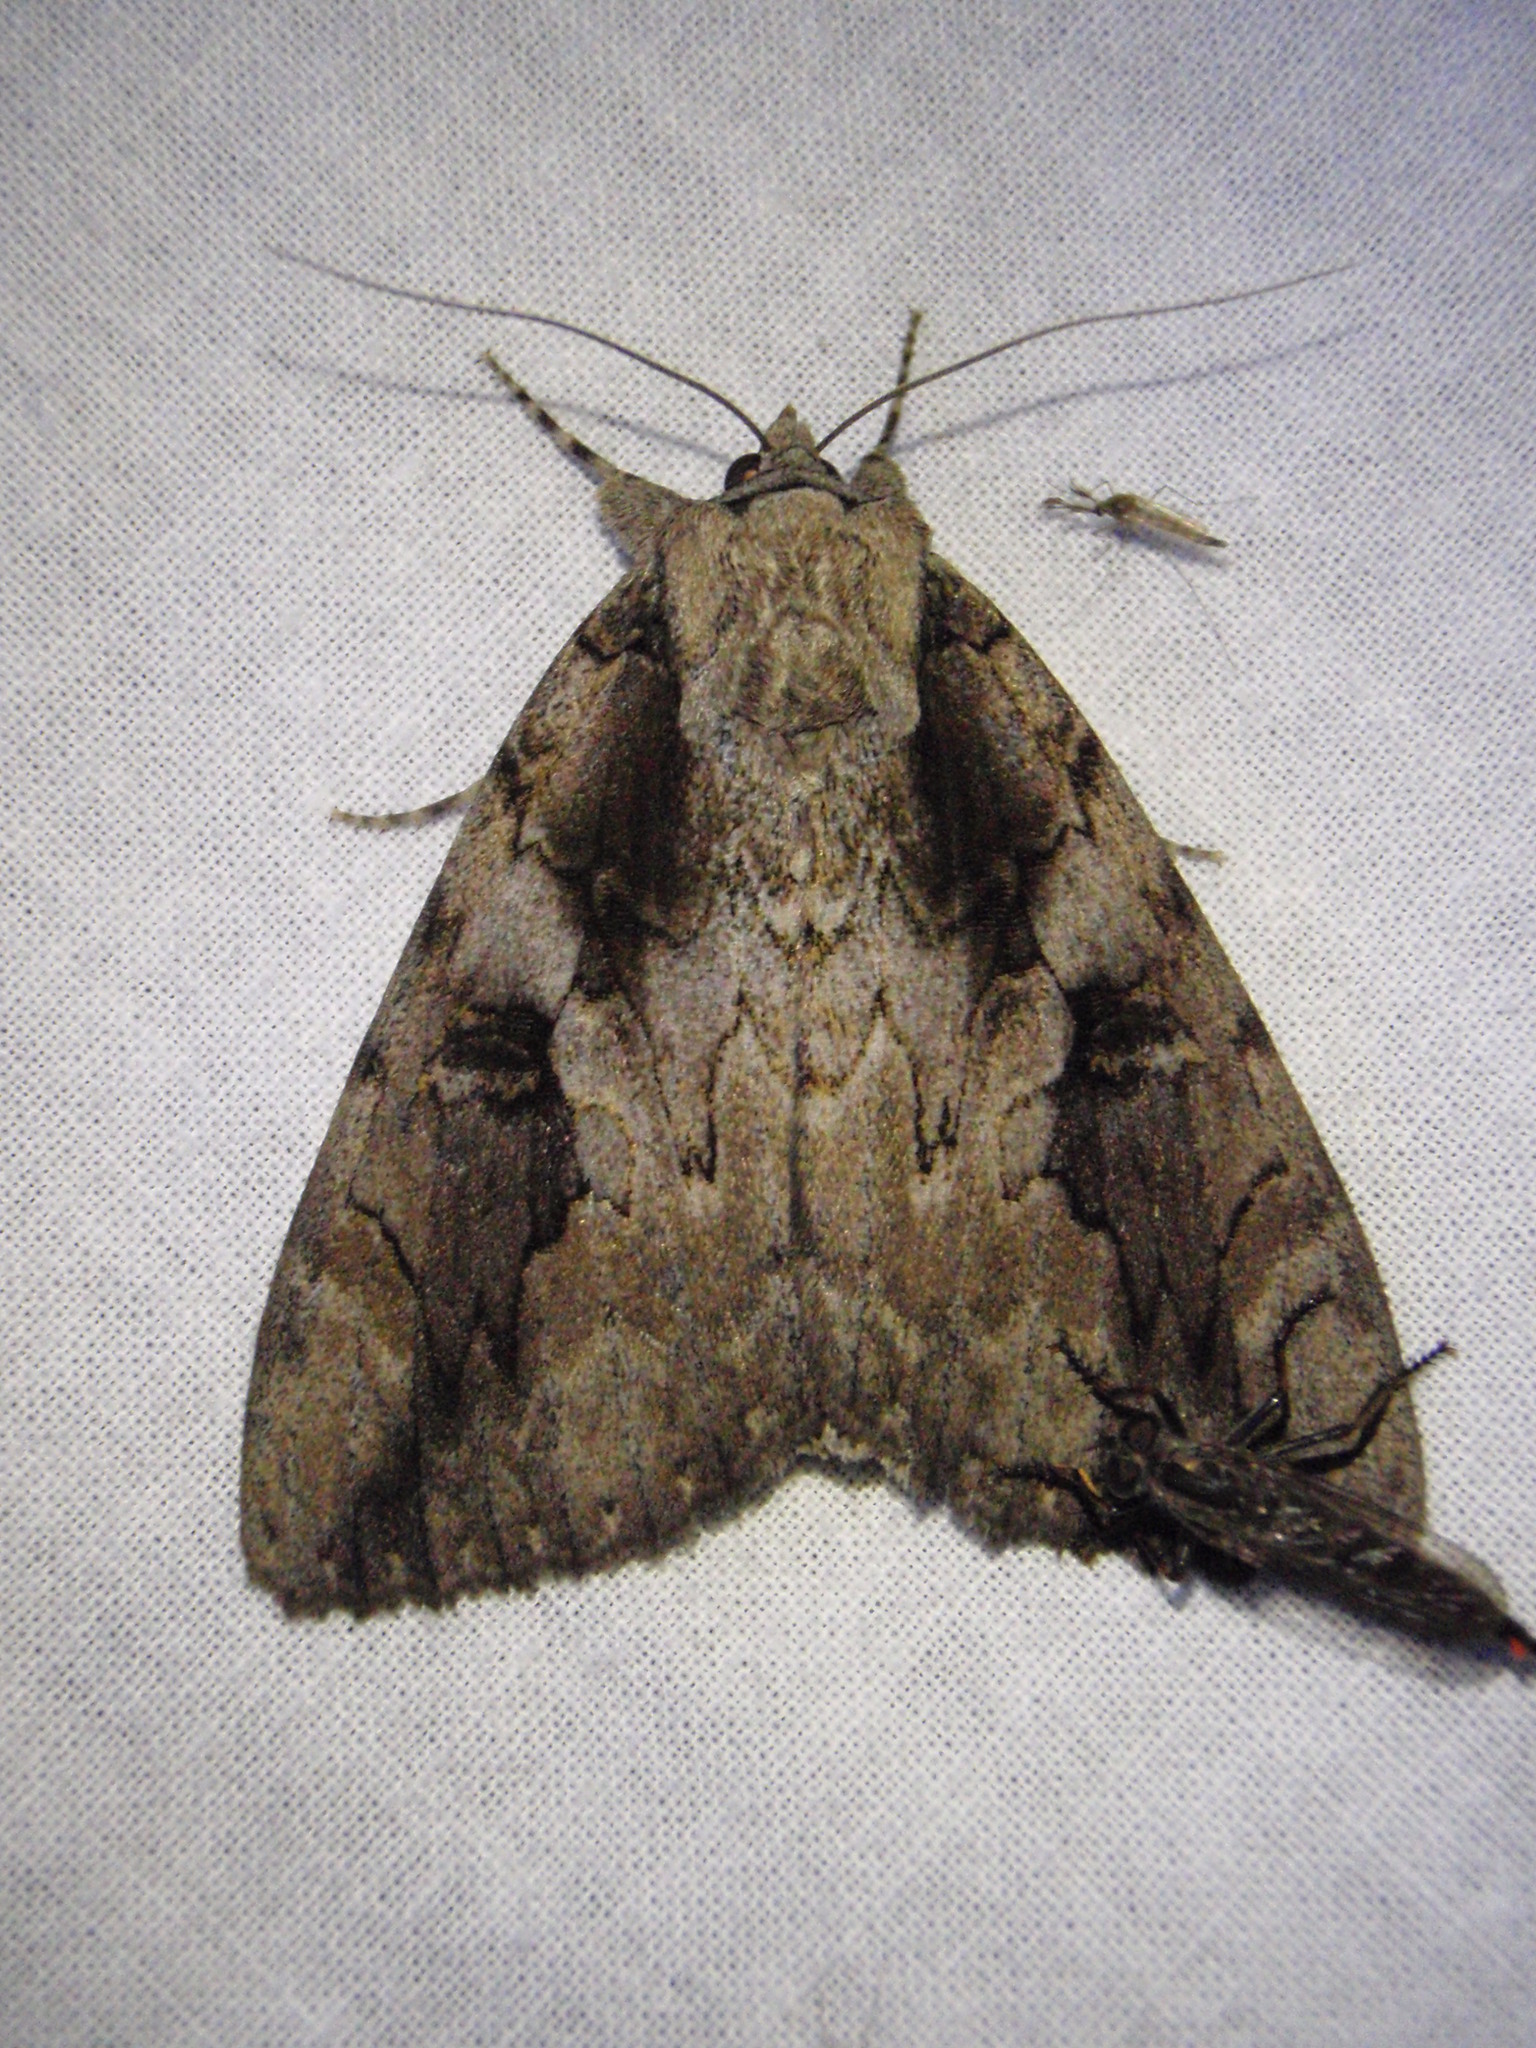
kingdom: Animalia
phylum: Arthropoda
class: Insecta
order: Lepidoptera
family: Erebidae
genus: Catocala
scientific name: Catocala amatrix
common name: Sweetheart underwing
